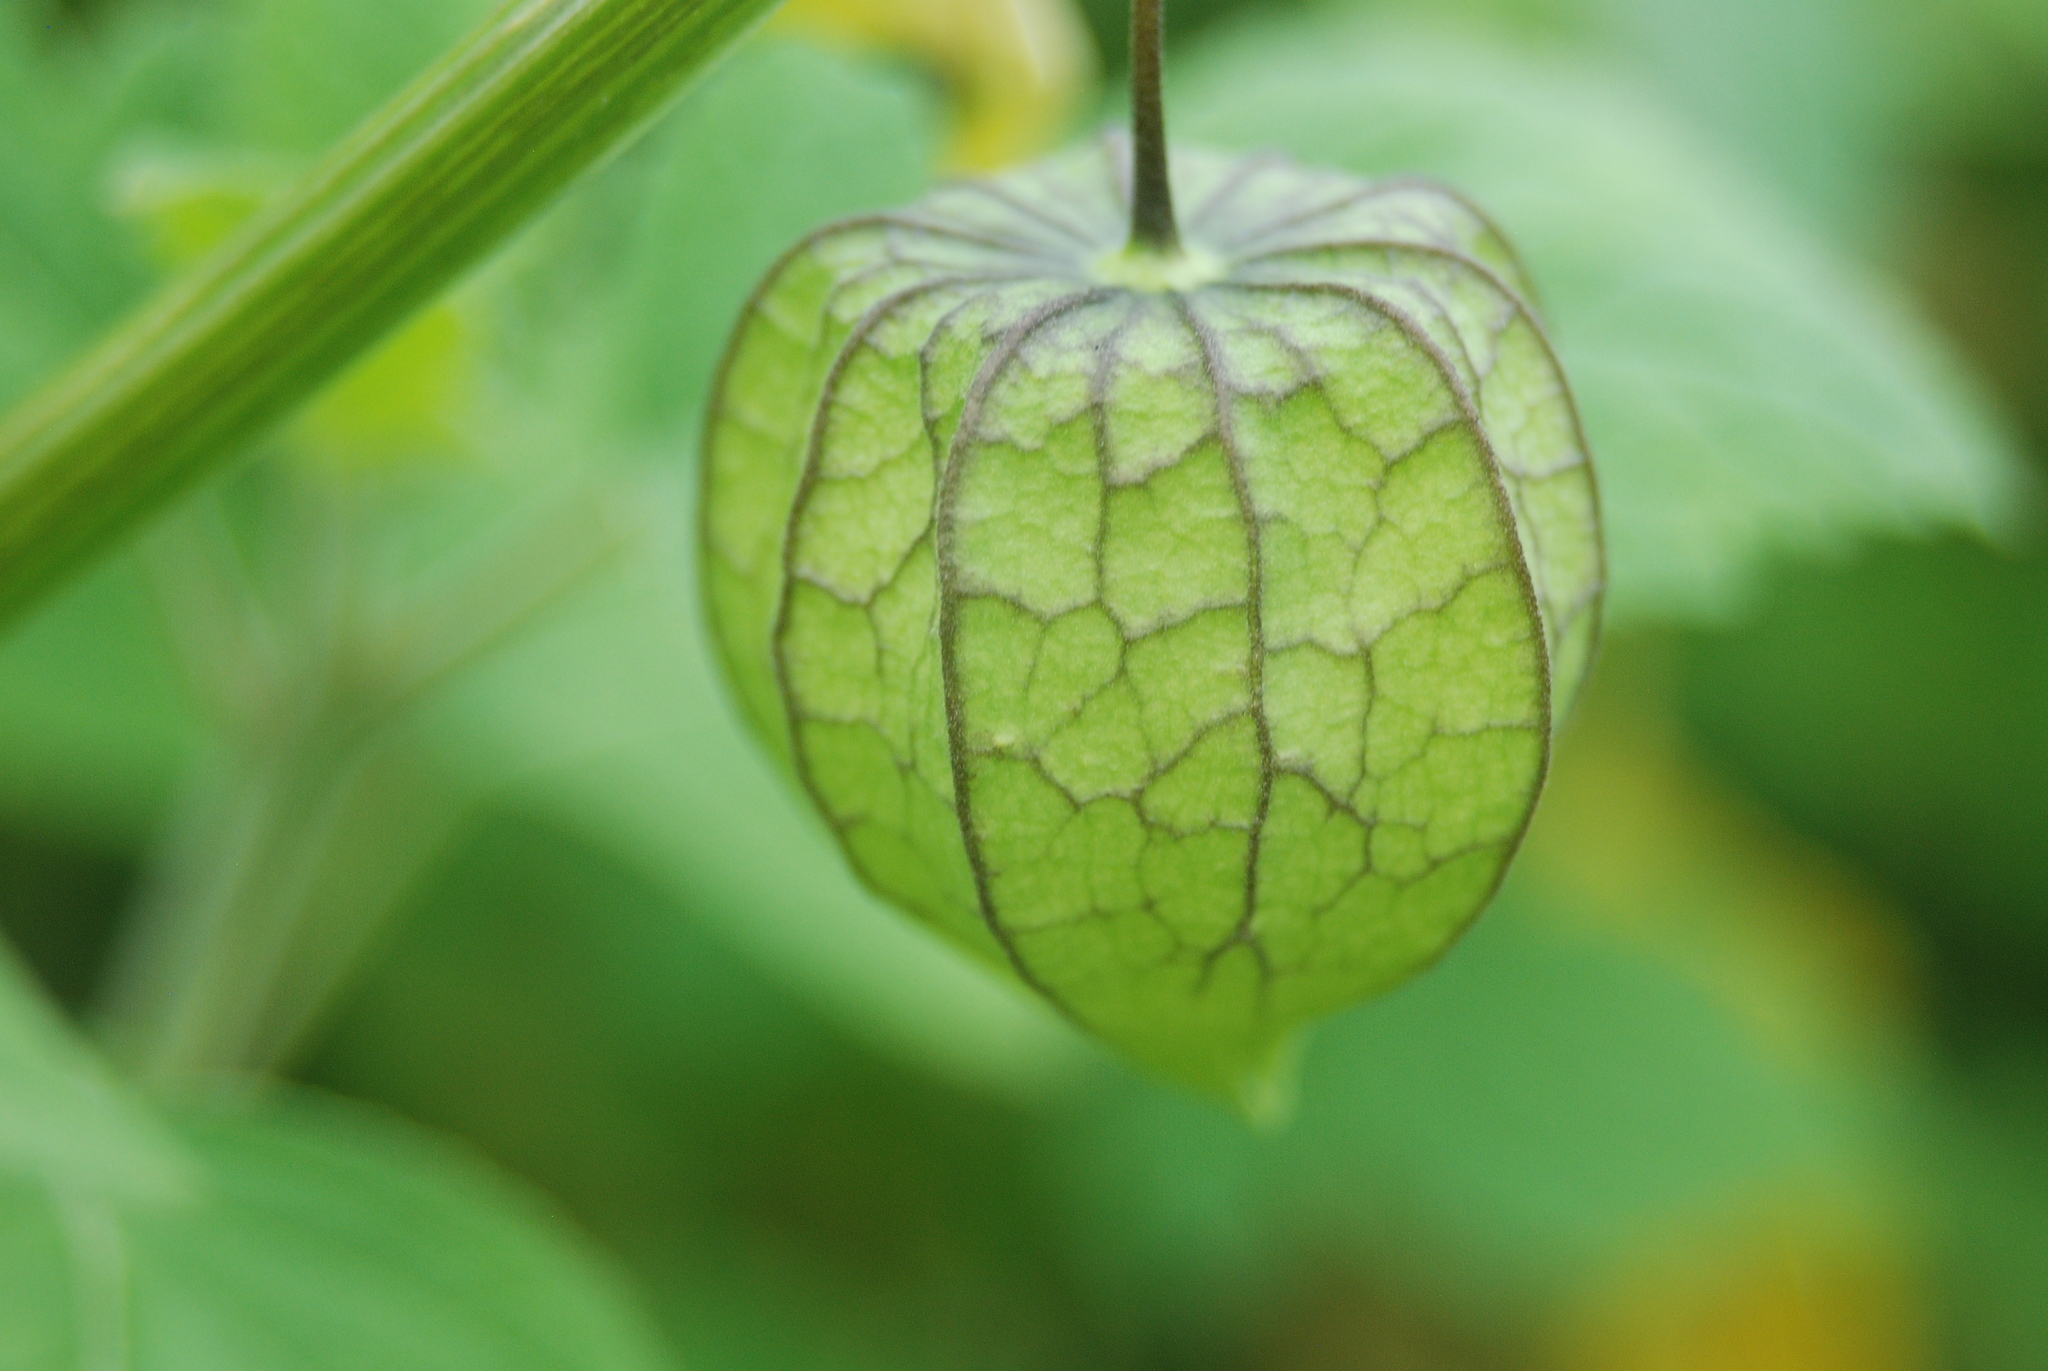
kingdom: Plantae
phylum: Tracheophyta
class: Magnoliopsida
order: Solanales
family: Solanaceae
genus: Physalis
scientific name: Physalis angulata
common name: Angular winter-cherry
